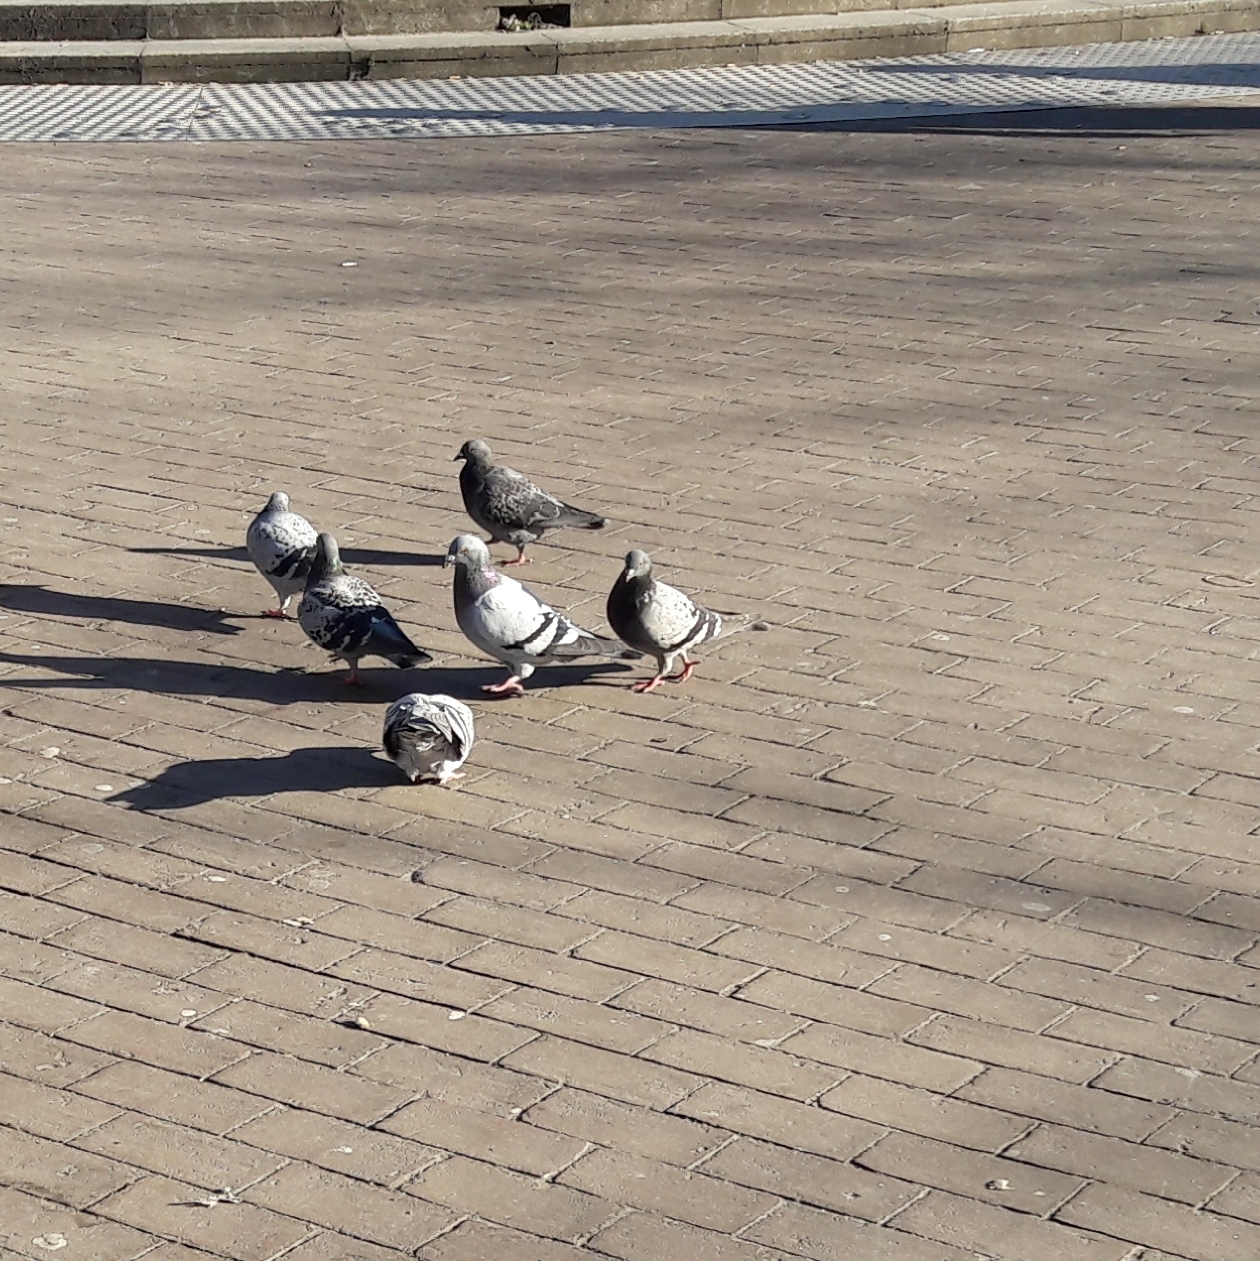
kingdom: Animalia
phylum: Chordata
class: Aves
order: Columbiformes
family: Columbidae
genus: Columba
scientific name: Columba livia
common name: Rock pigeon
